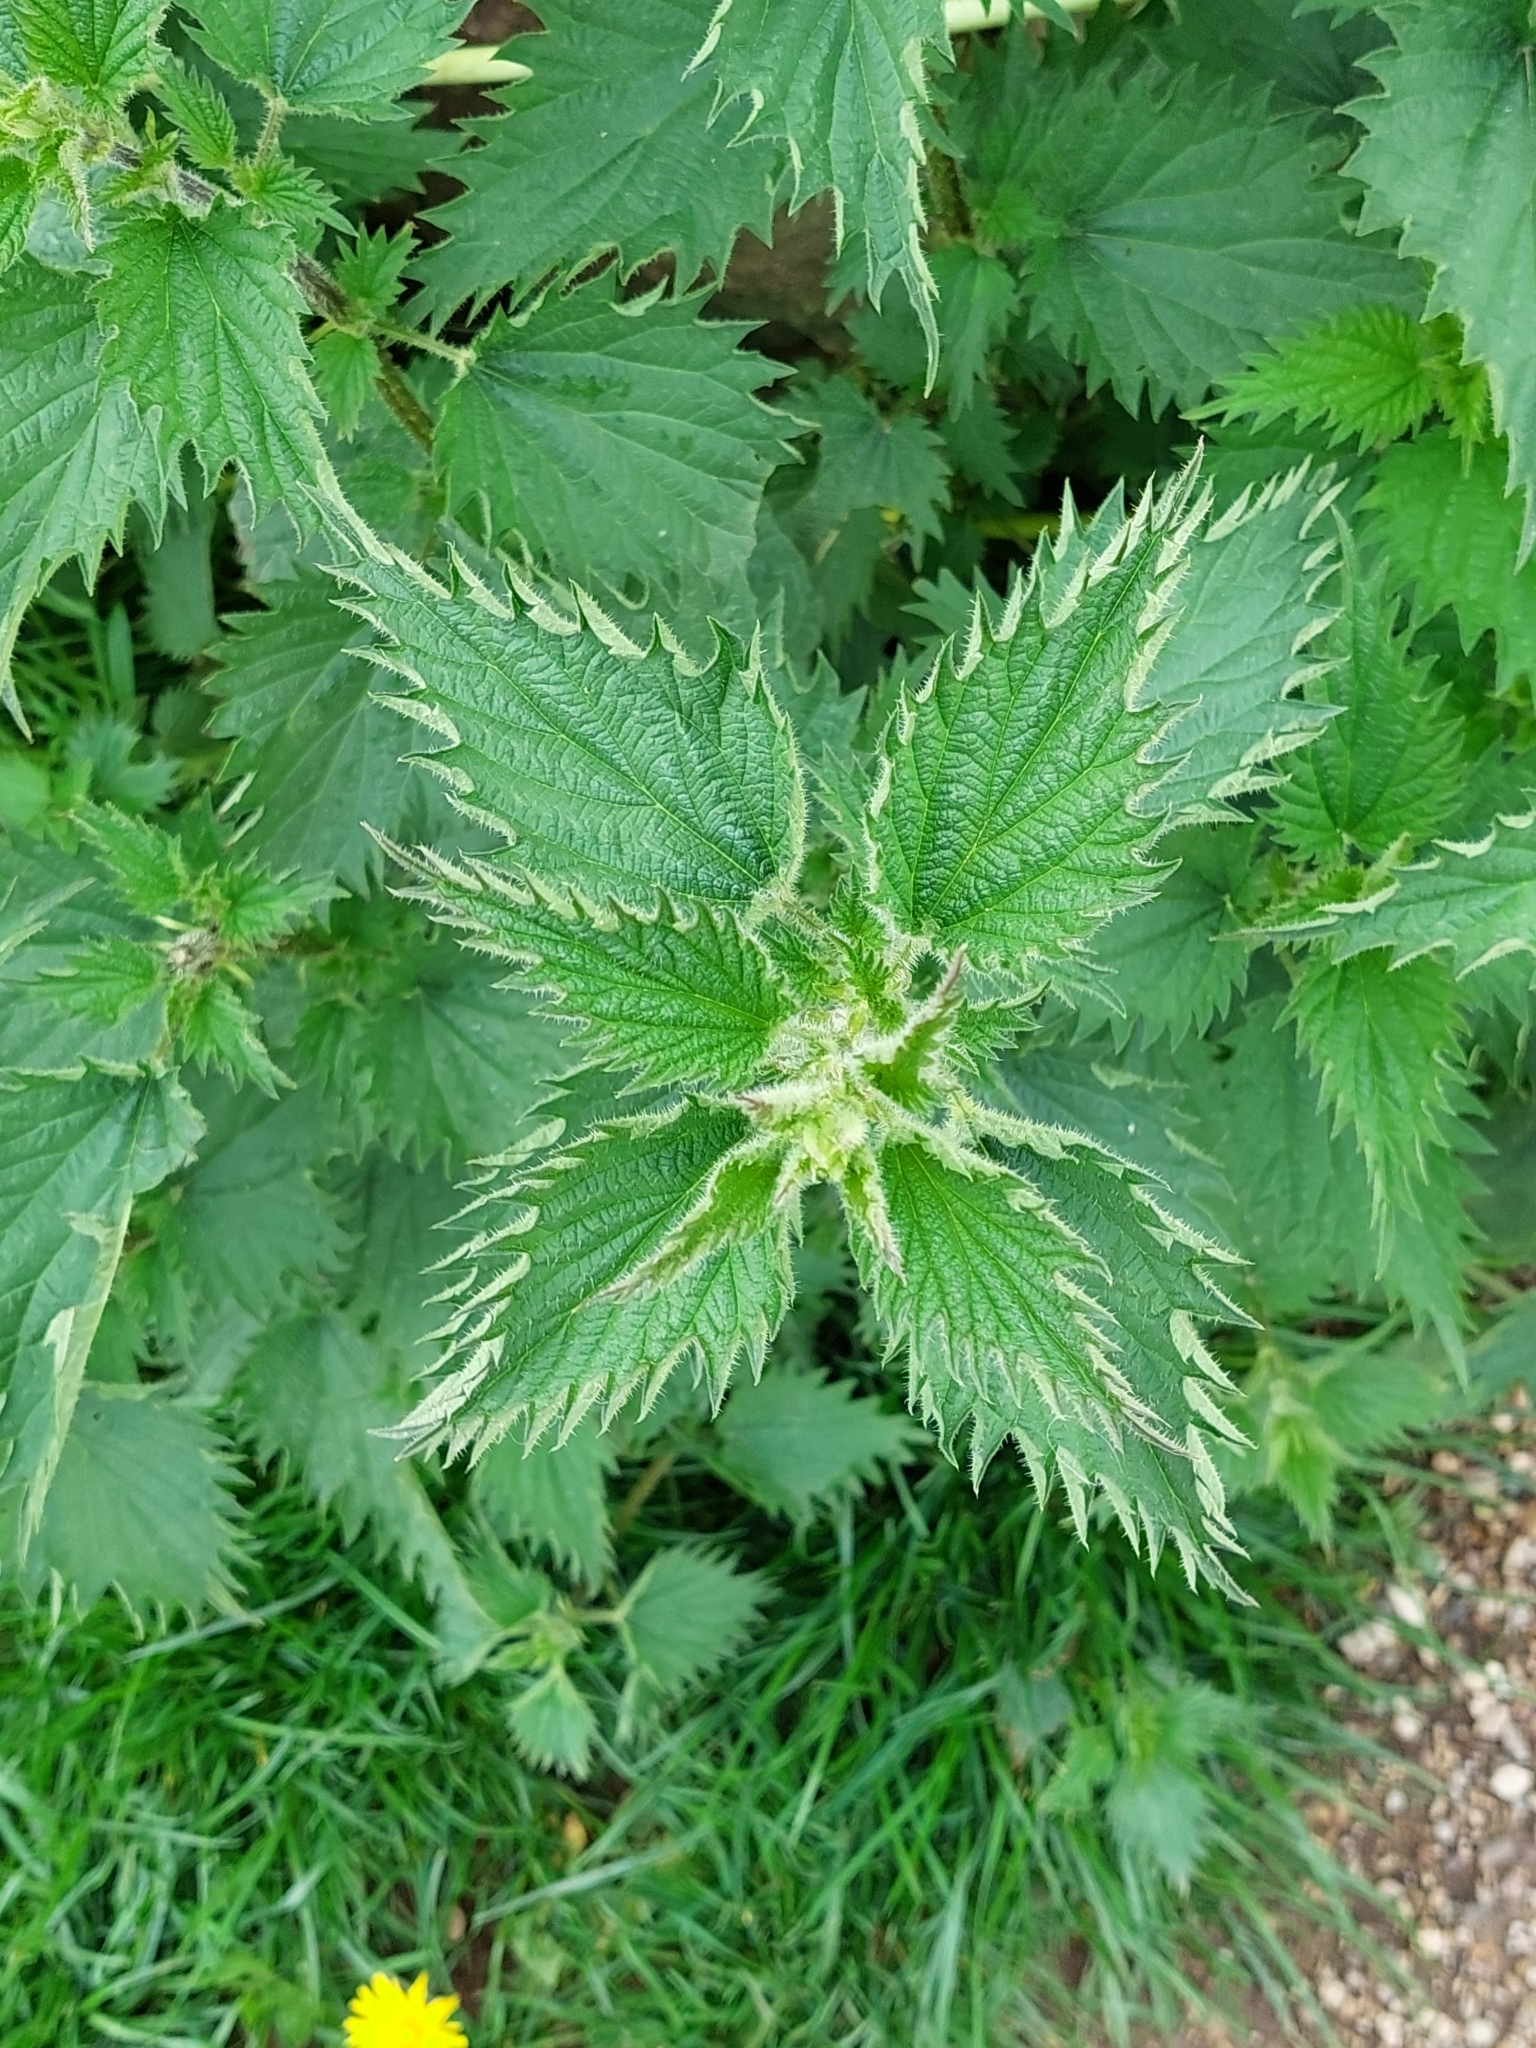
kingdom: Plantae
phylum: Tracheophyta
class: Magnoliopsida
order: Rosales
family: Urticaceae
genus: Urtica
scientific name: Urtica dioica
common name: Common nettle
